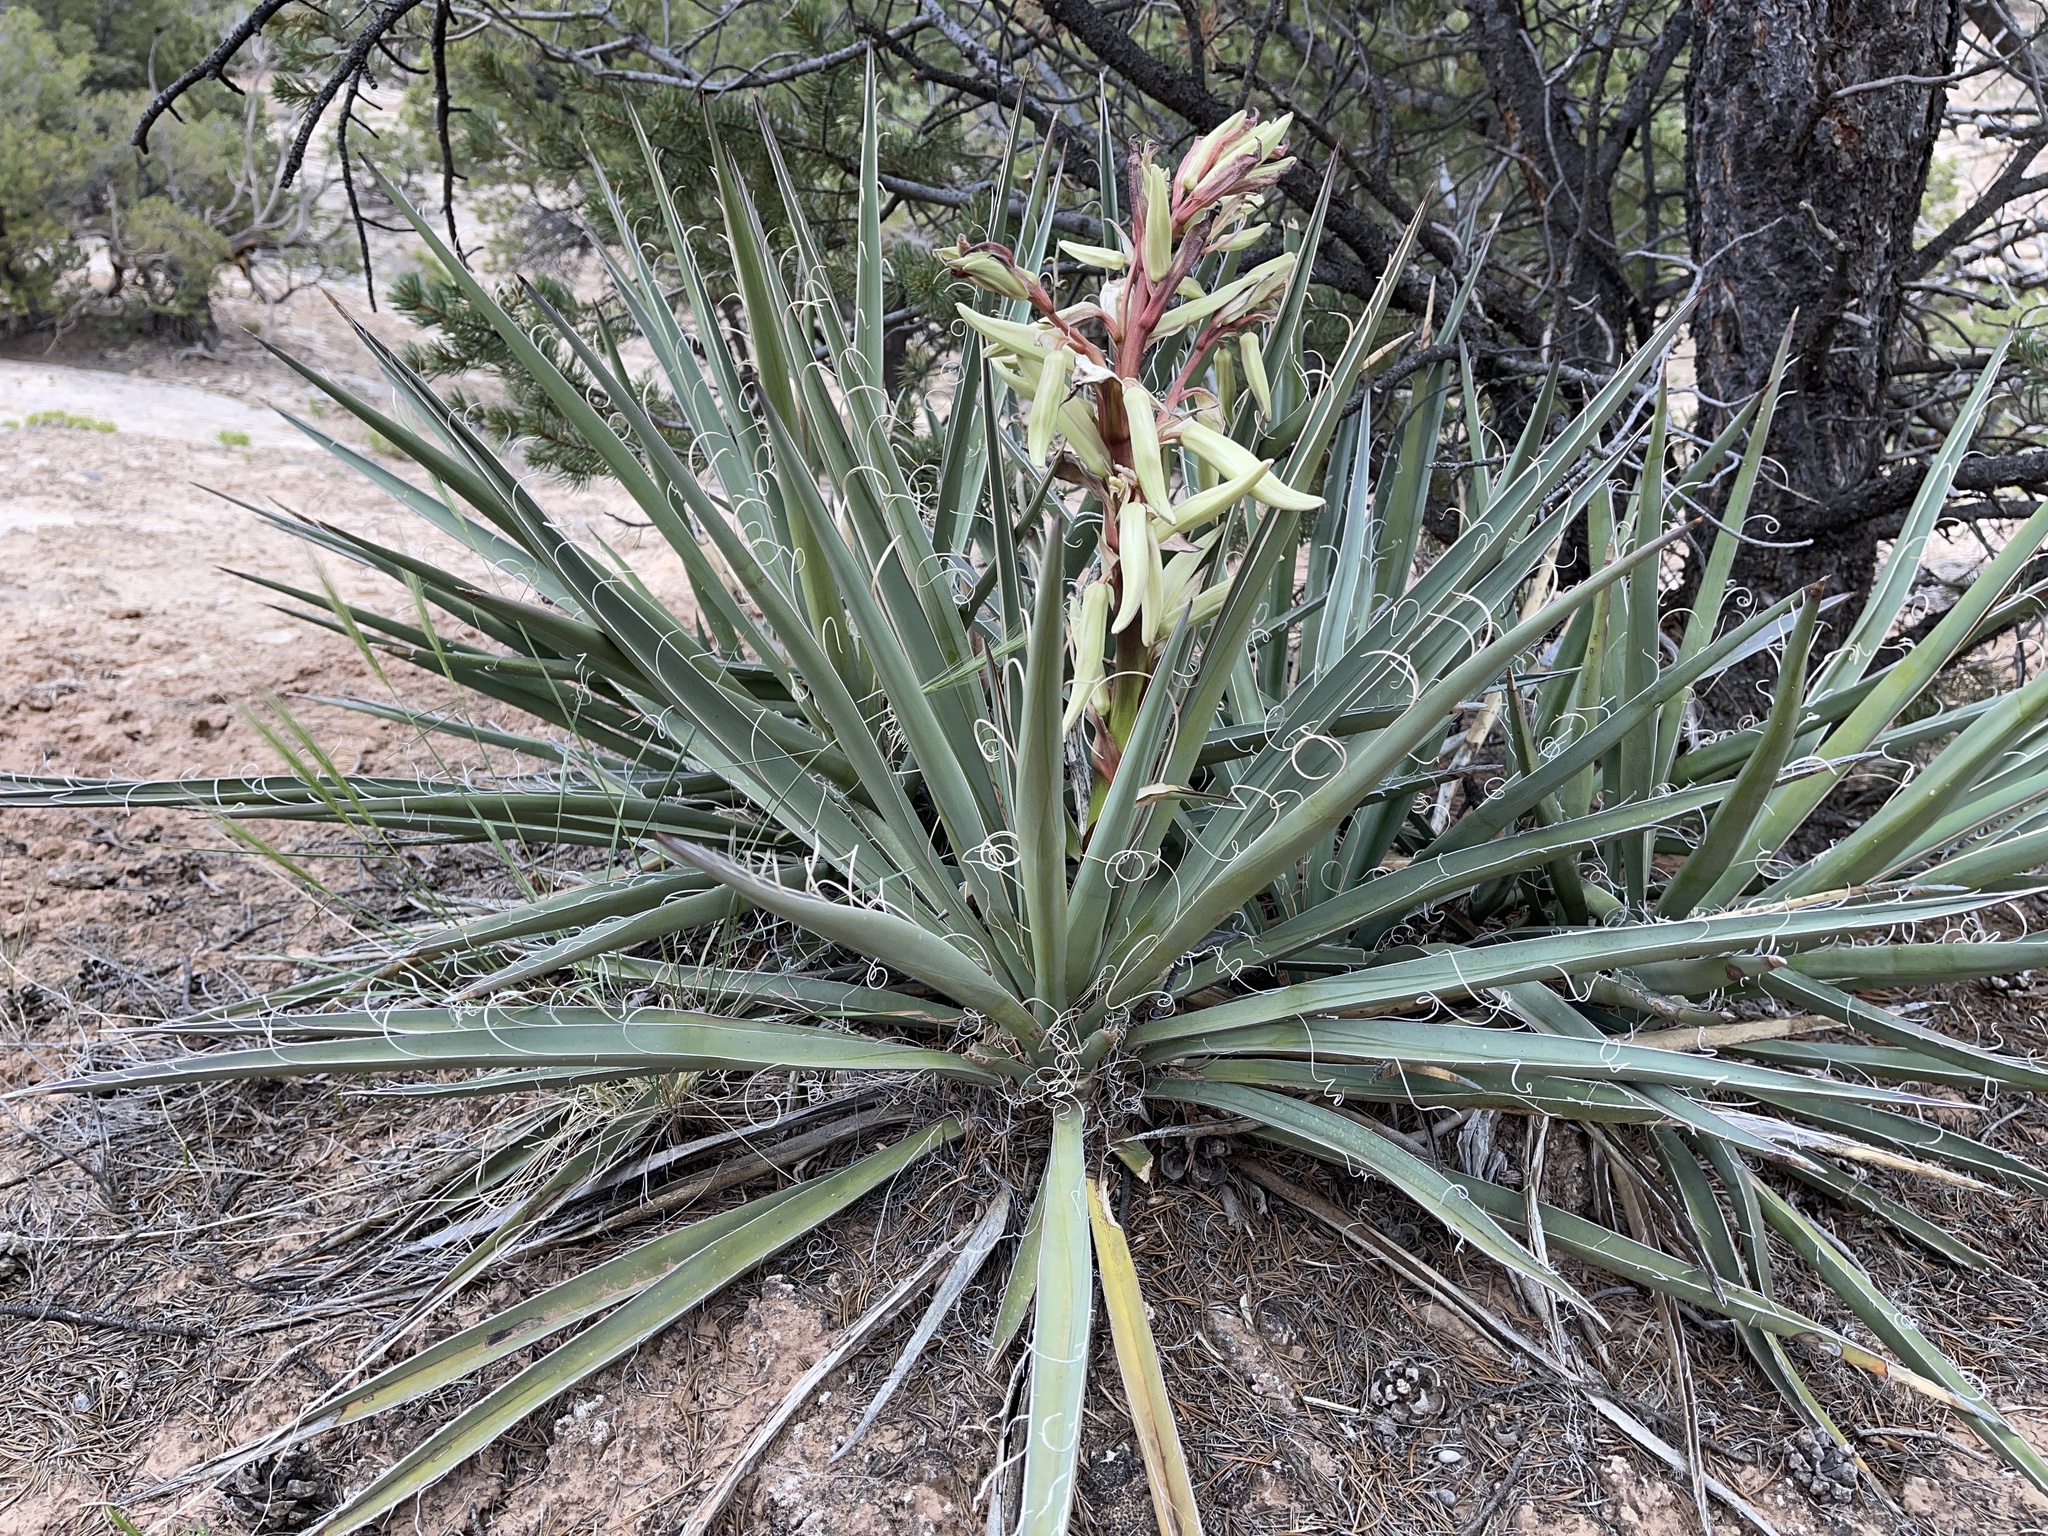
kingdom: Plantae
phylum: Tracheophyta
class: Liliopsida
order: Asparagales
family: Asparagaceae
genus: Yucca
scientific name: Yucca baccata
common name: Banana yucca
